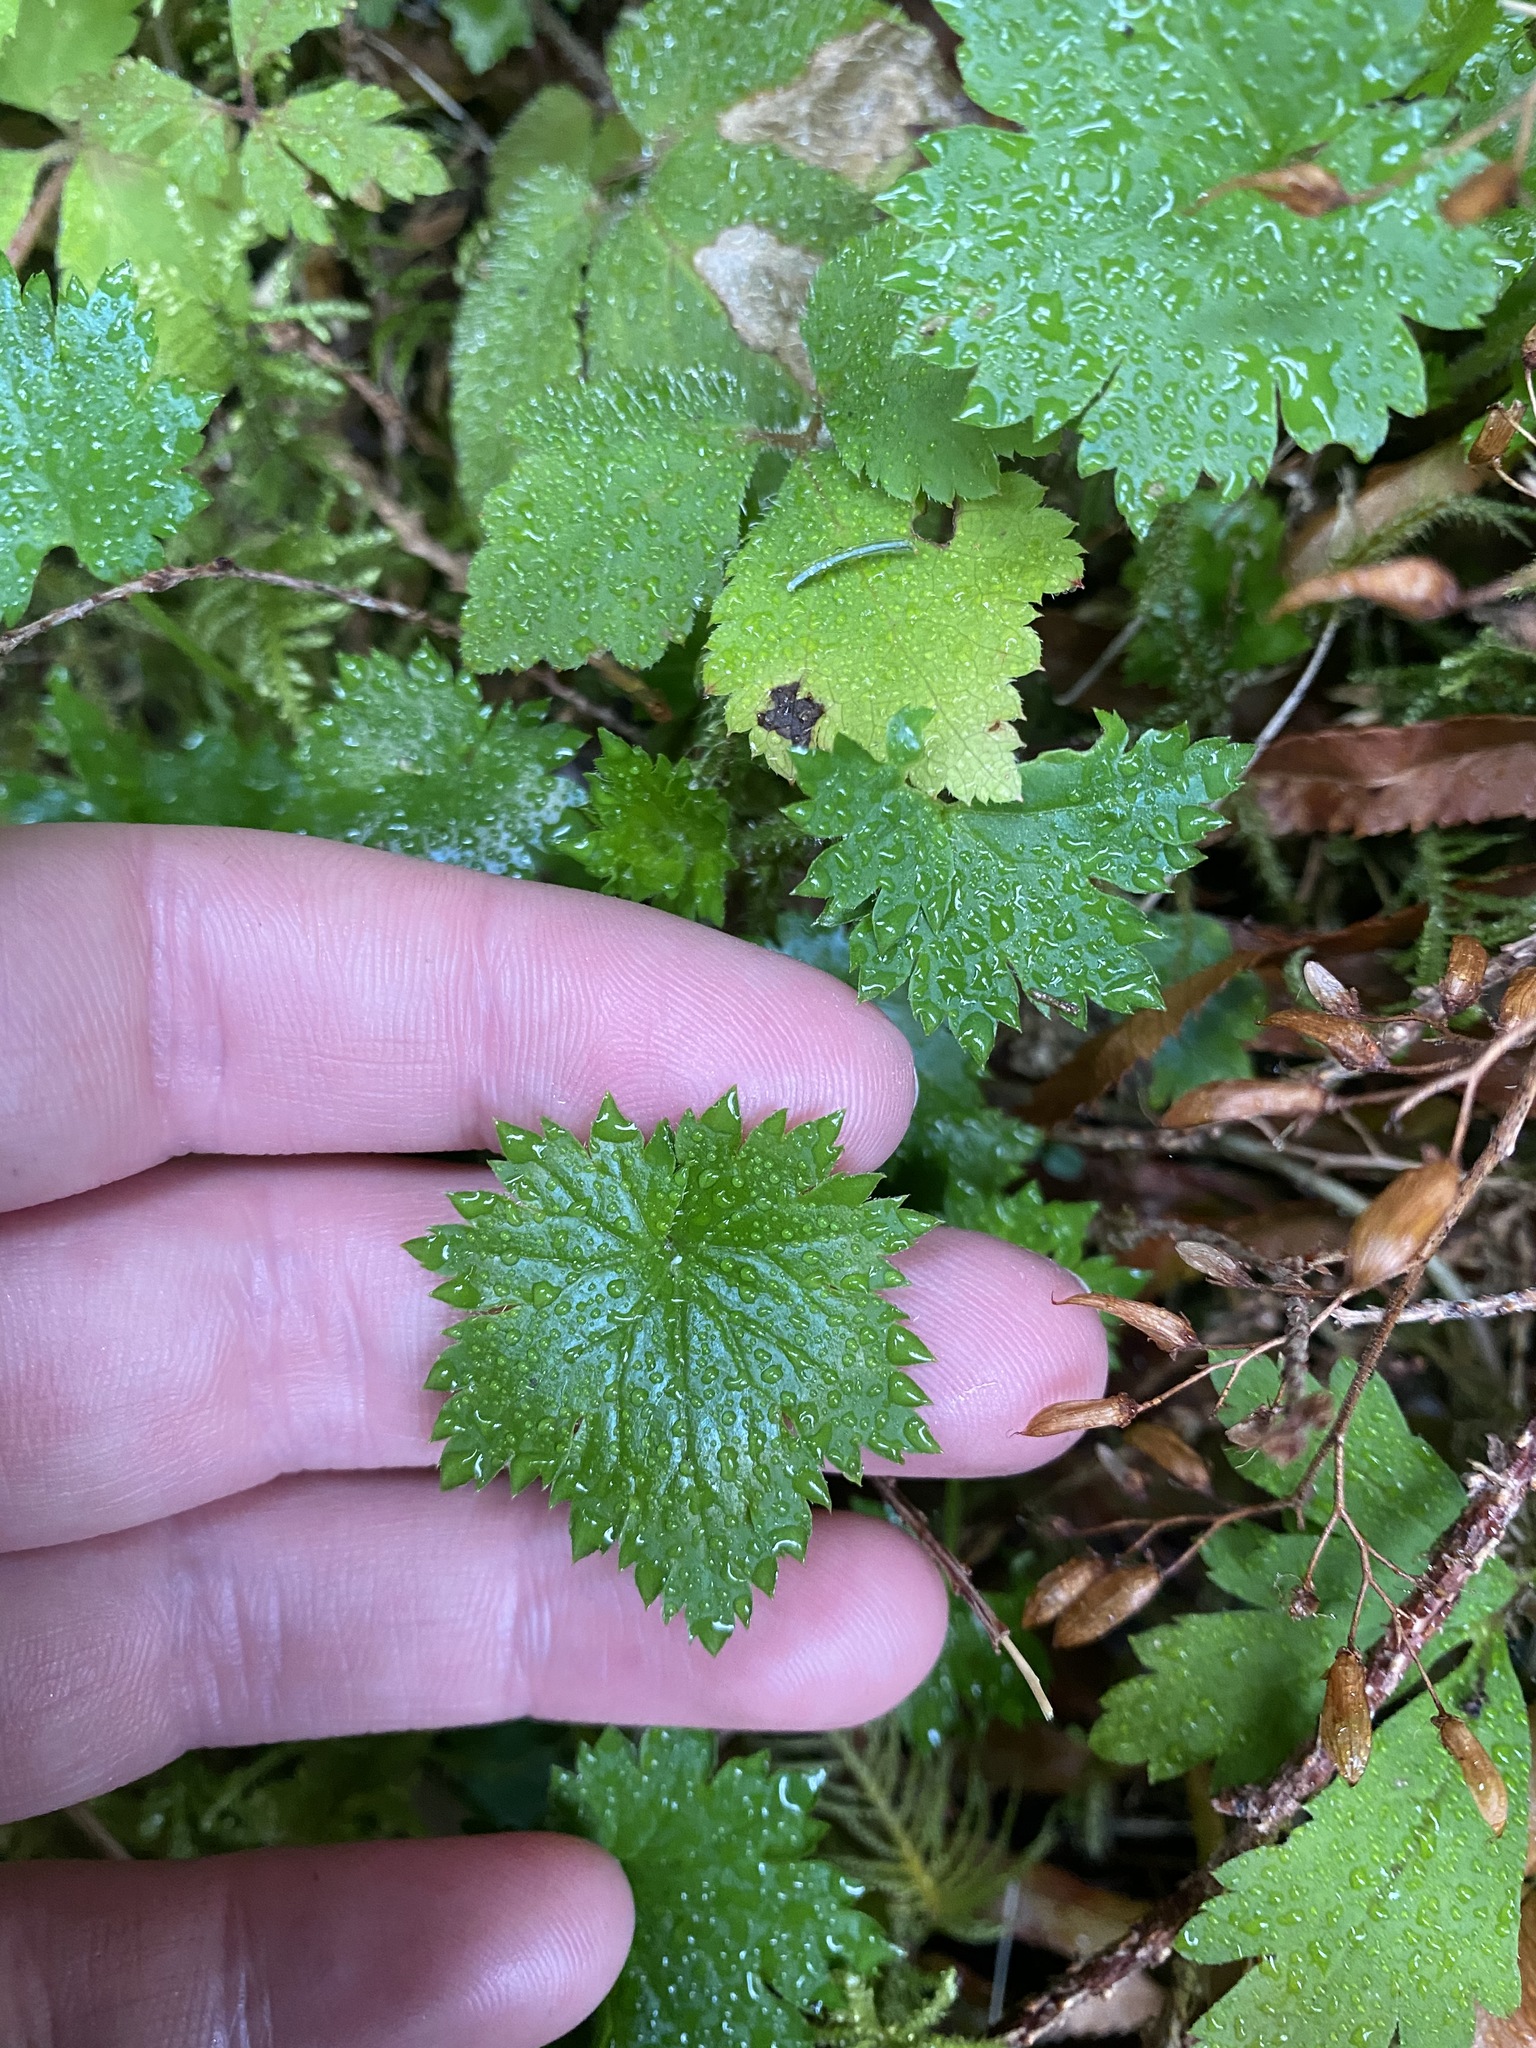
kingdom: Plantae
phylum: Tracheophyta
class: Magnoliopsida
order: Saxifragales
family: Saxifragaceae
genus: Boykinia
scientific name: Boykinia occidentalis
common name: Coast boykinia
